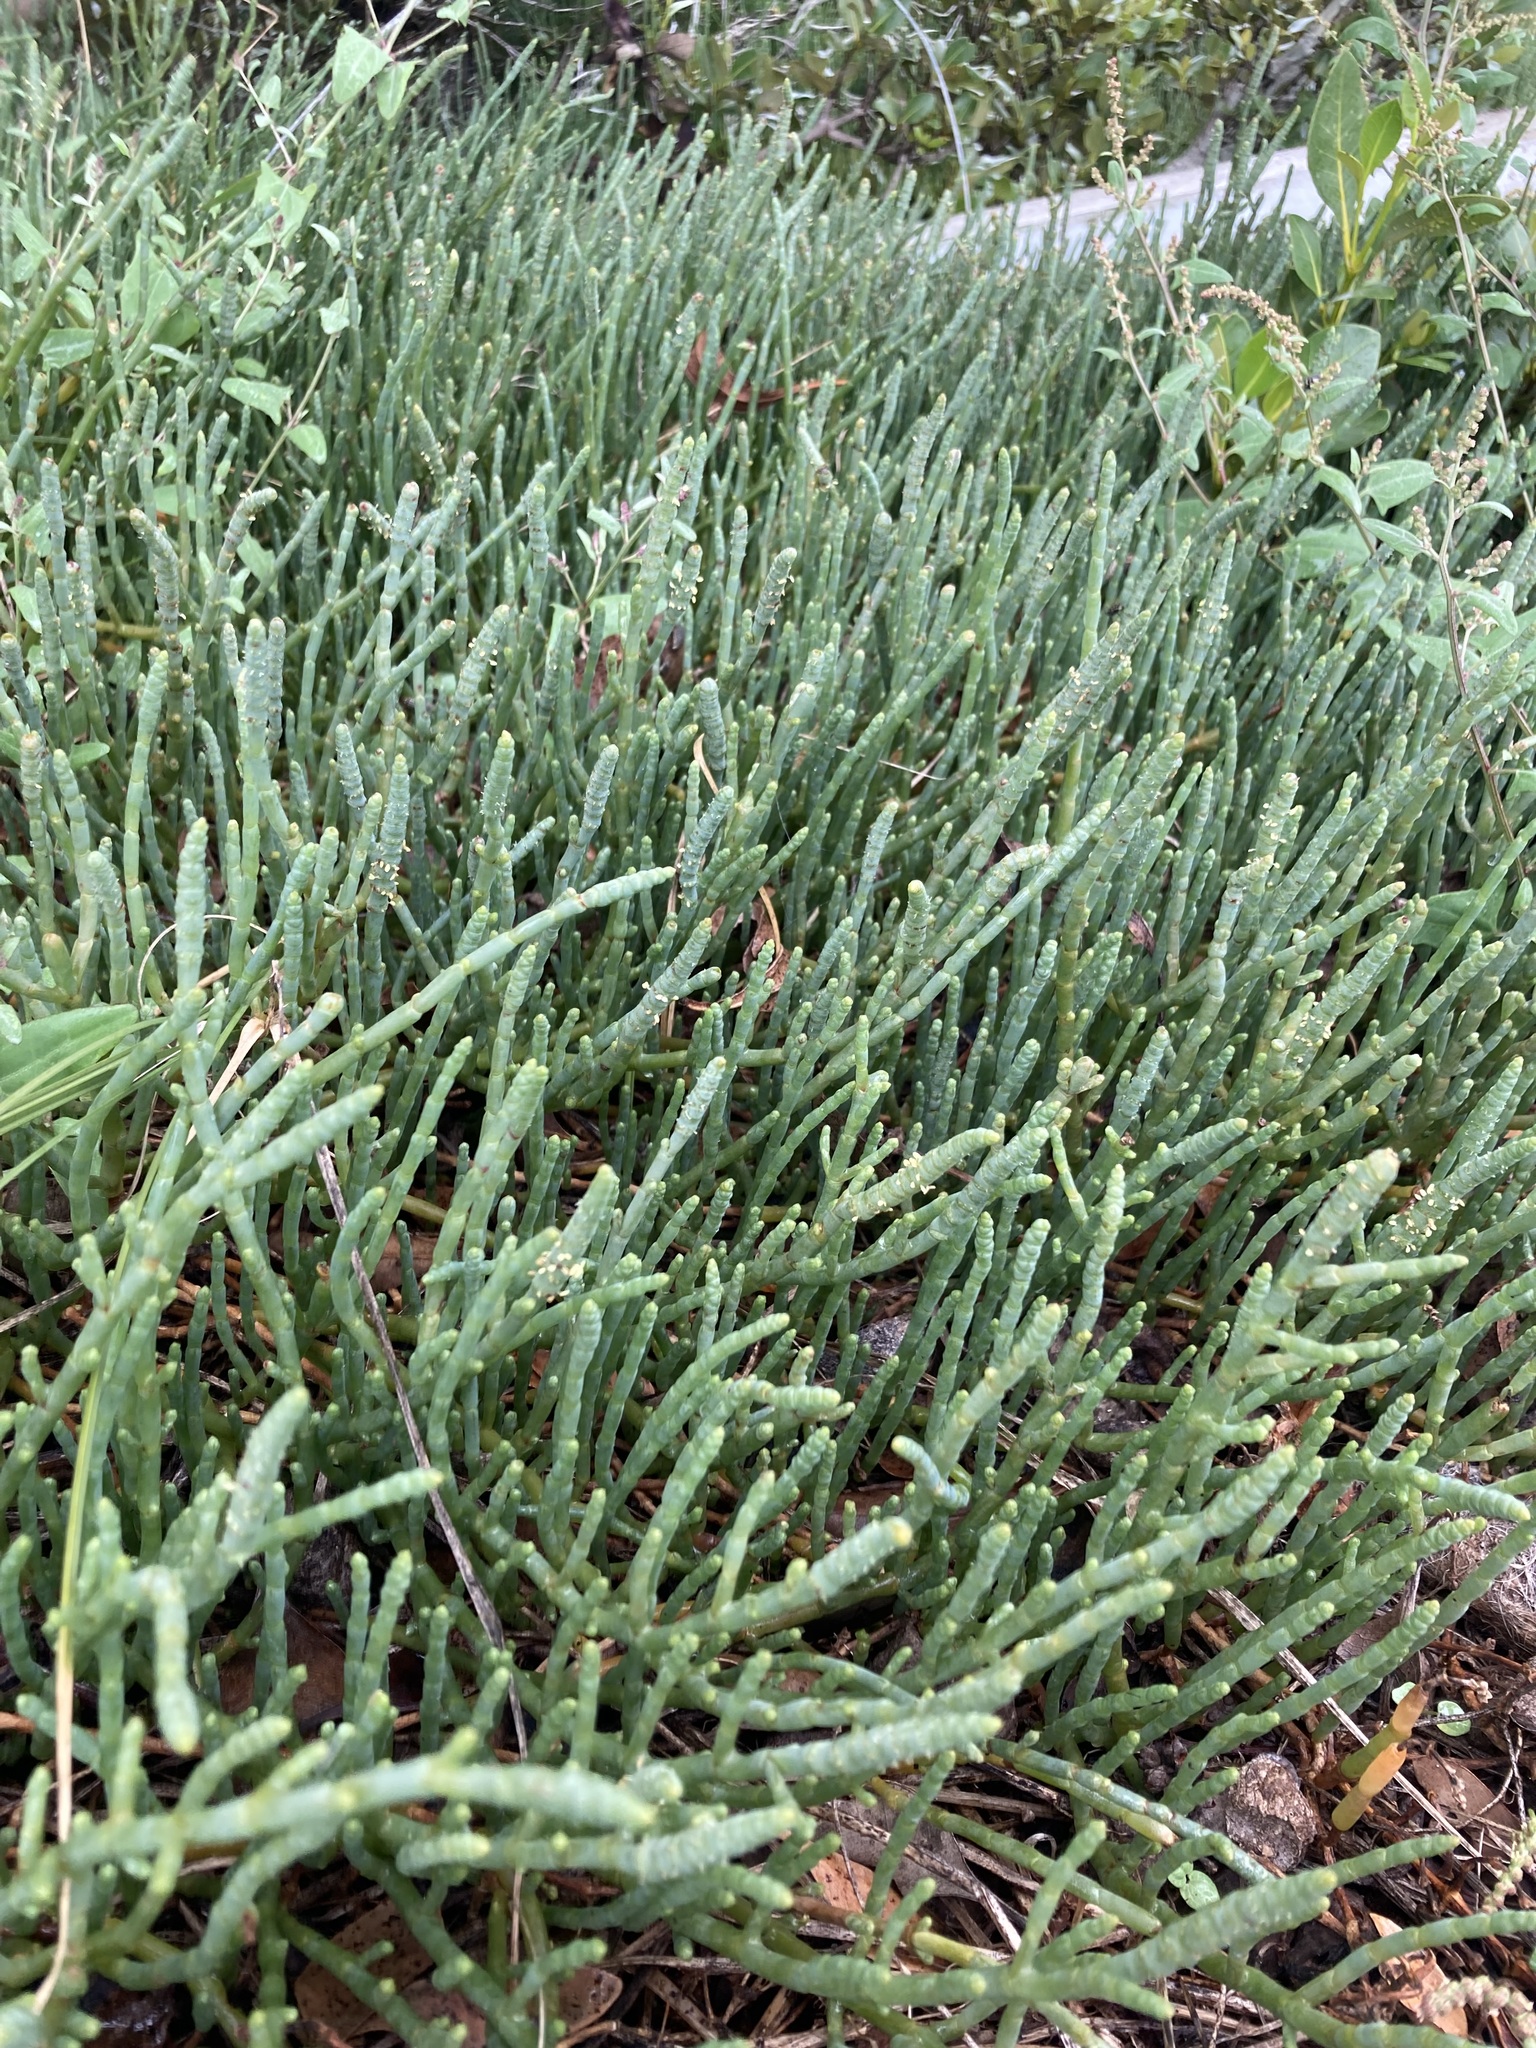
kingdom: Plantae
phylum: Tracheophyta
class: Magnoliopsida
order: Caryophyllales
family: Amaranthaceae
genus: Salicornia
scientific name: Salicornia quinqueflora
